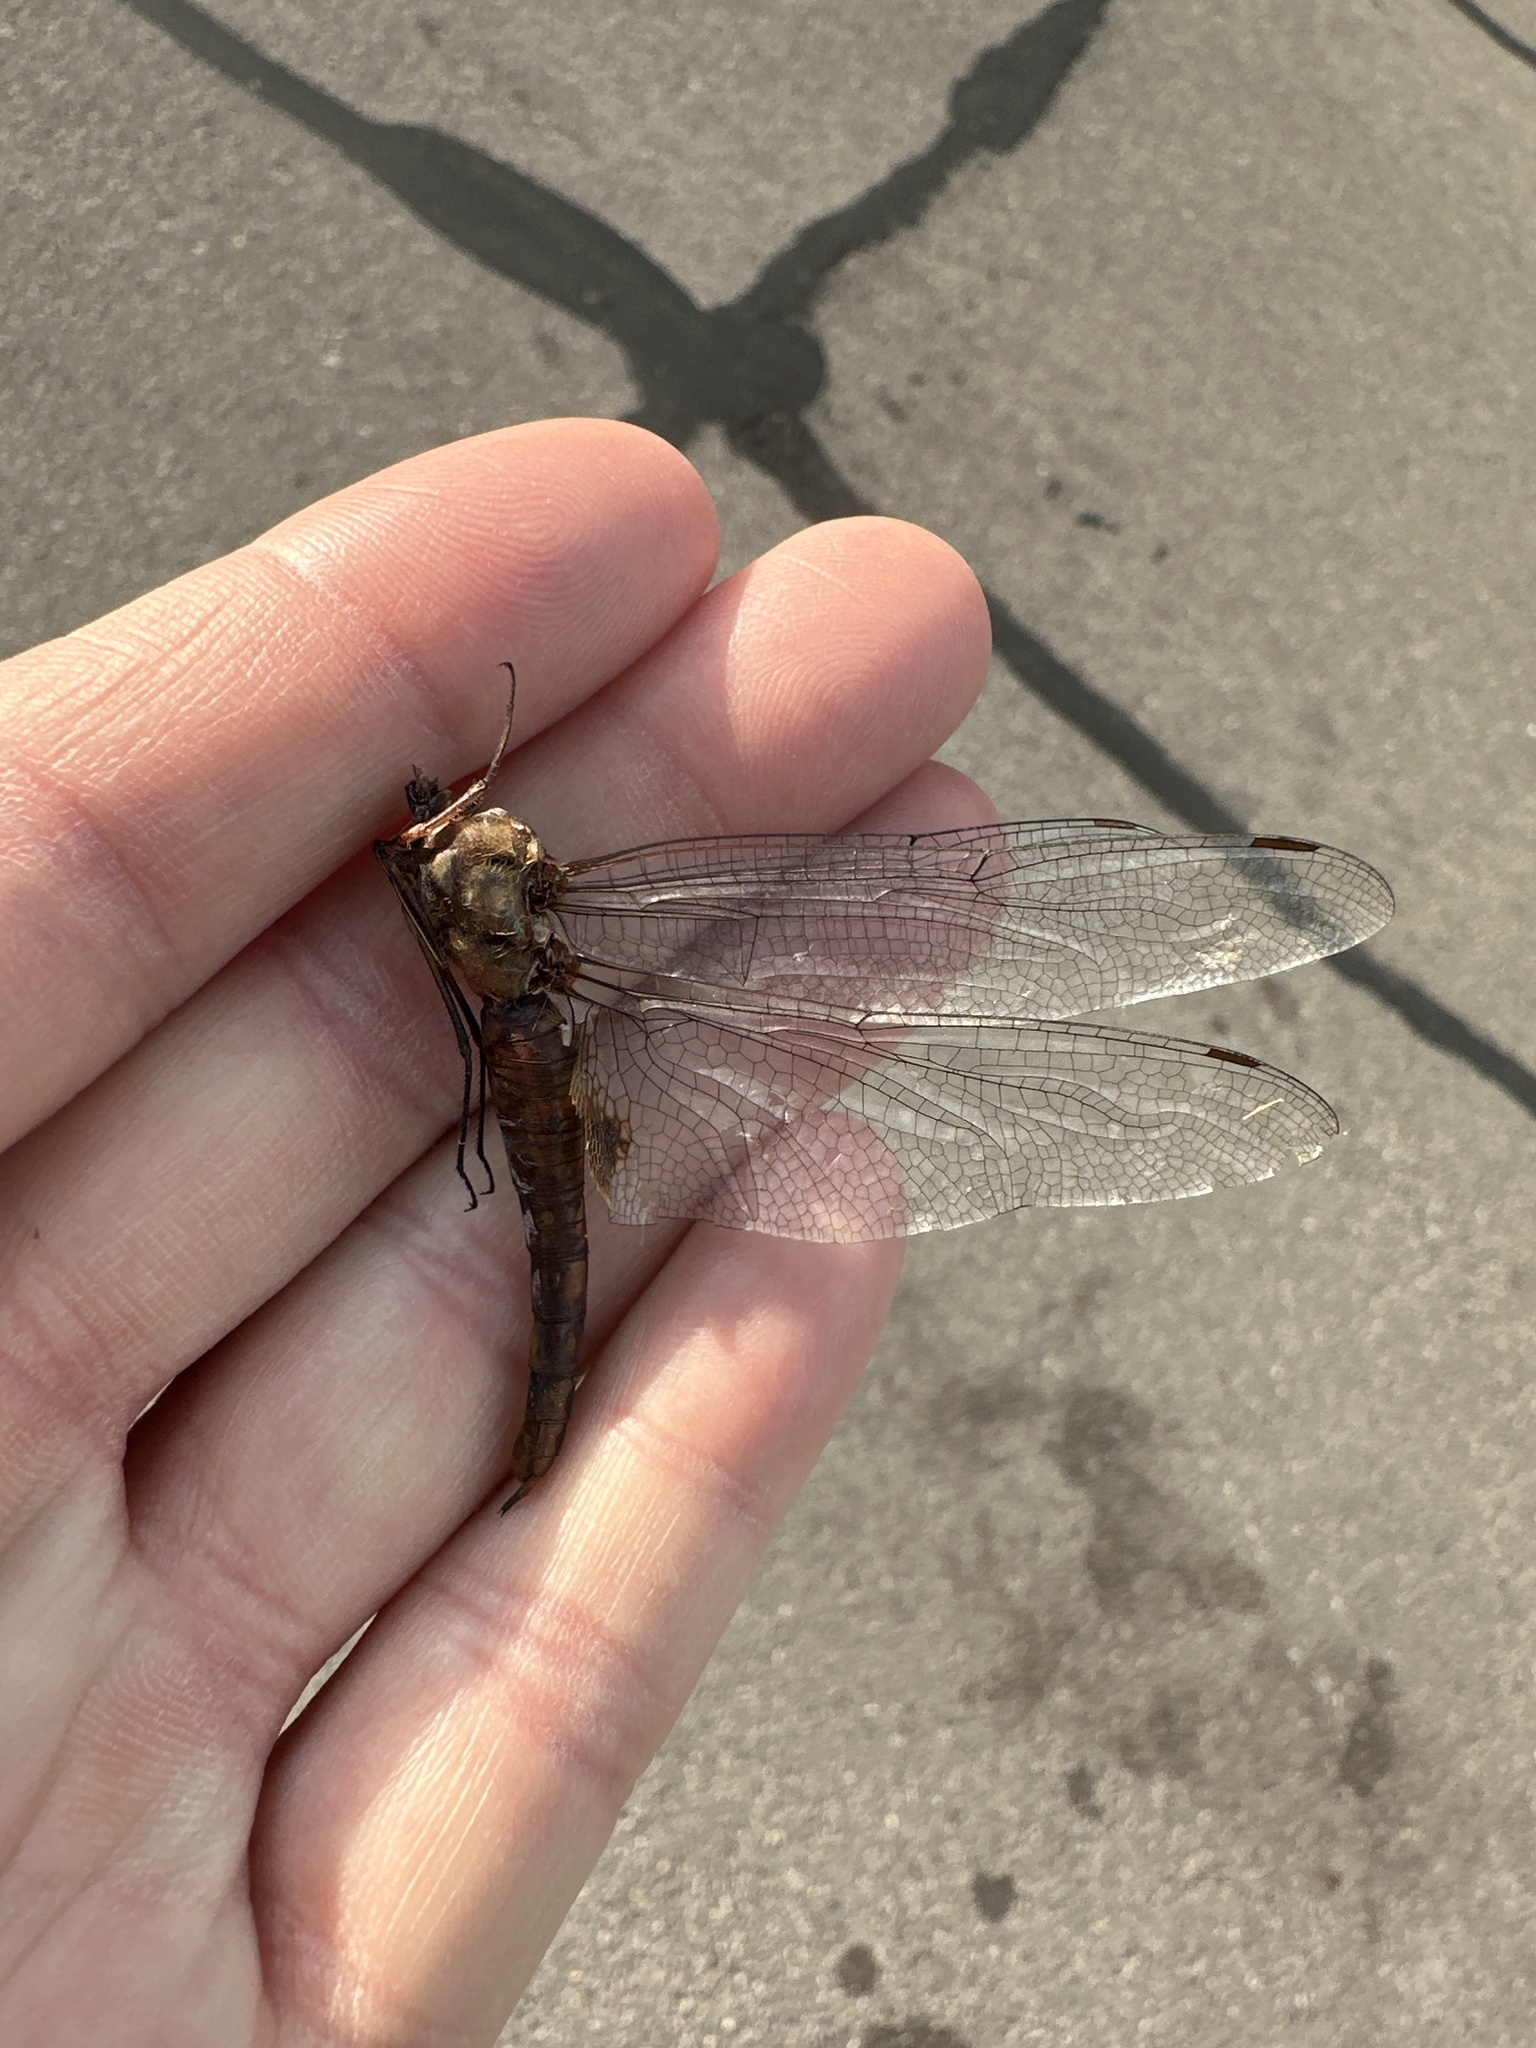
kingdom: Animalia
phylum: Arthropoda
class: Insecta
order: Odonata
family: Libellulidae
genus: Pantala
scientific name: Pantala hymenaea
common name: Spot-winged glider
